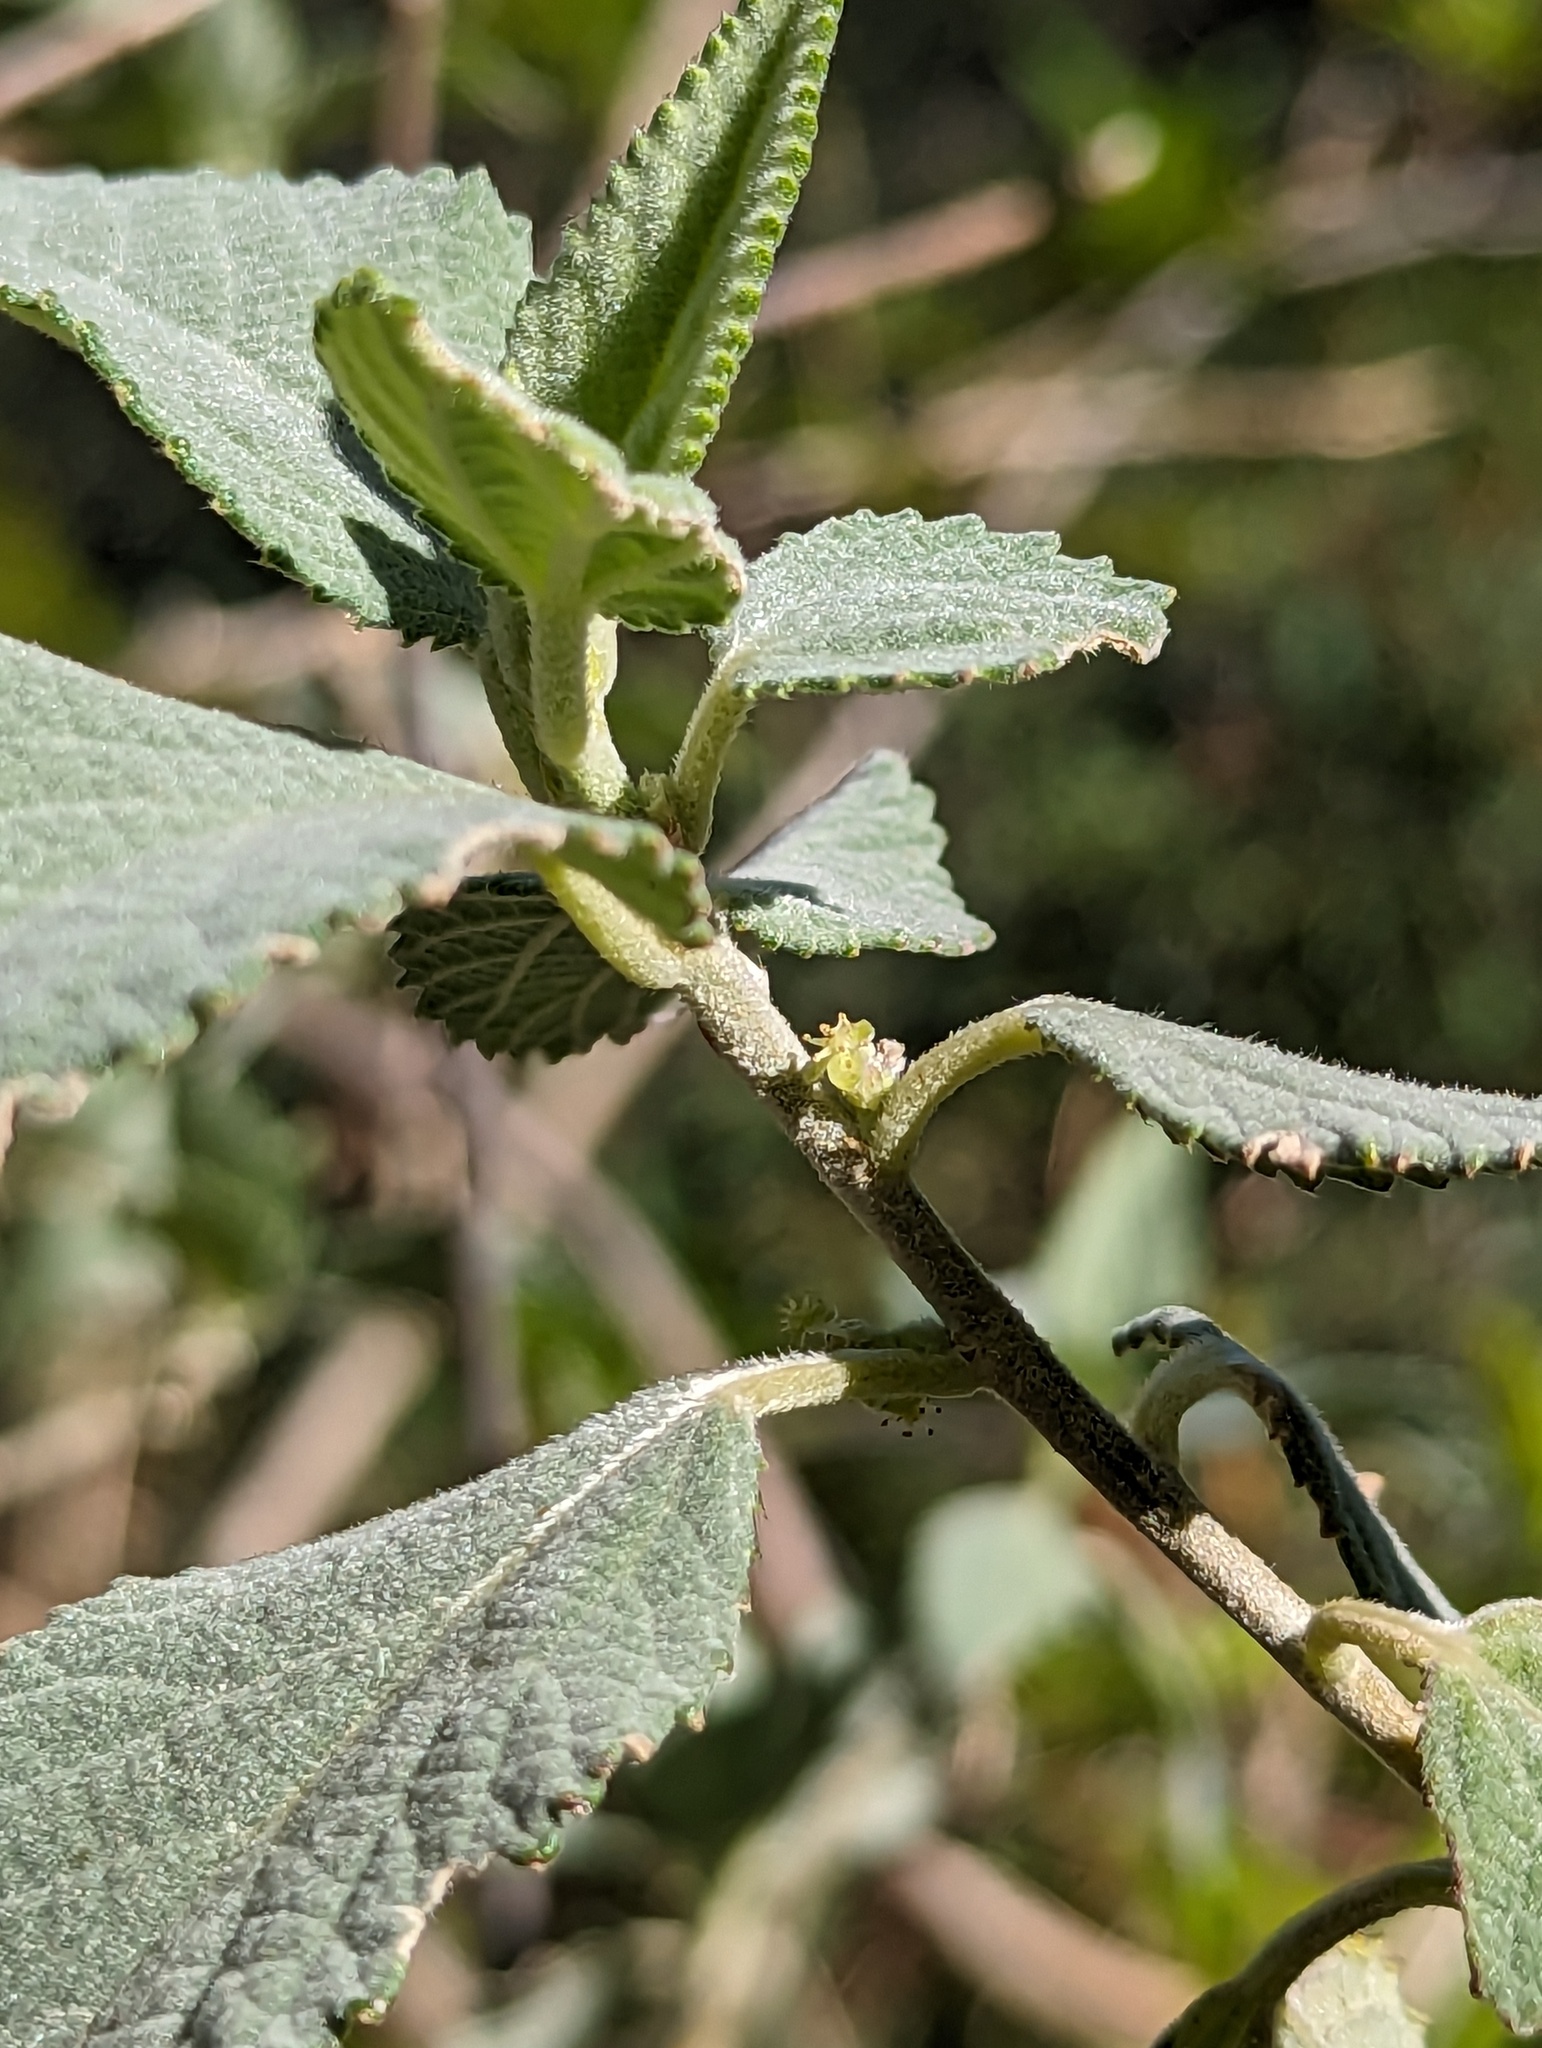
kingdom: Plantae
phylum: Tracheophyta
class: Magnoliopsida
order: Malpighiales
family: Euphorbiaceae
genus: Bernardia
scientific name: Bernardia lagunensis
